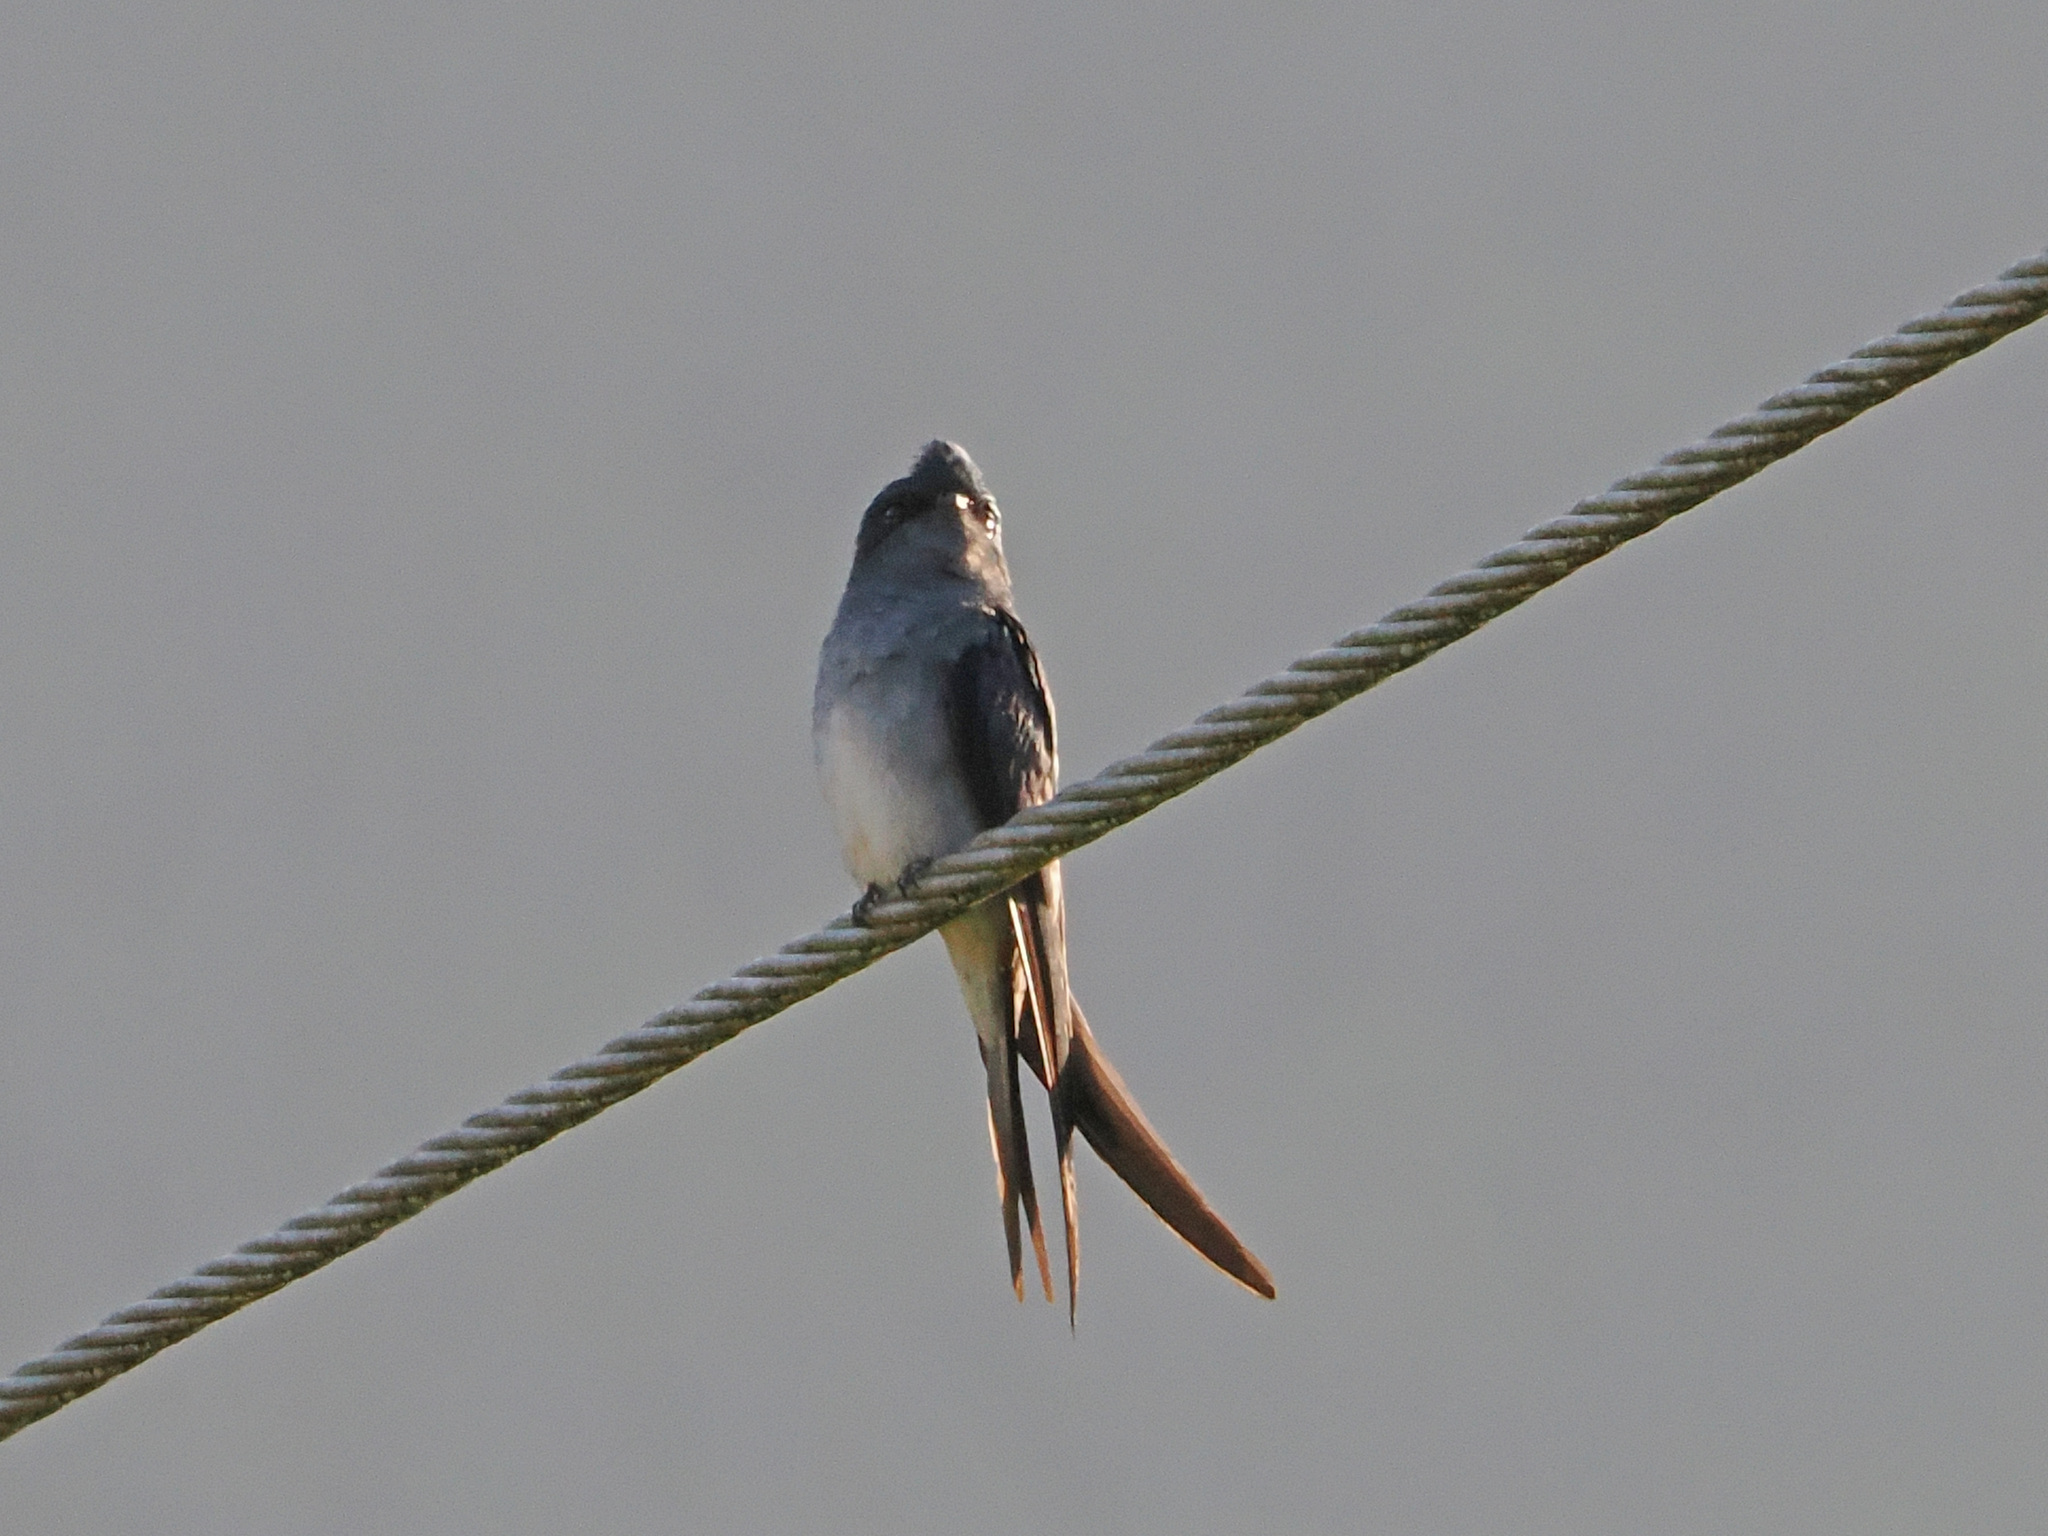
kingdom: Animalia
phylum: Chordata
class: Aves
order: Apodiformes
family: Hemiprocnidae
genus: Hemiprocne
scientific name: Hemiprocne longipennis
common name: Grey-rumped treeswift
